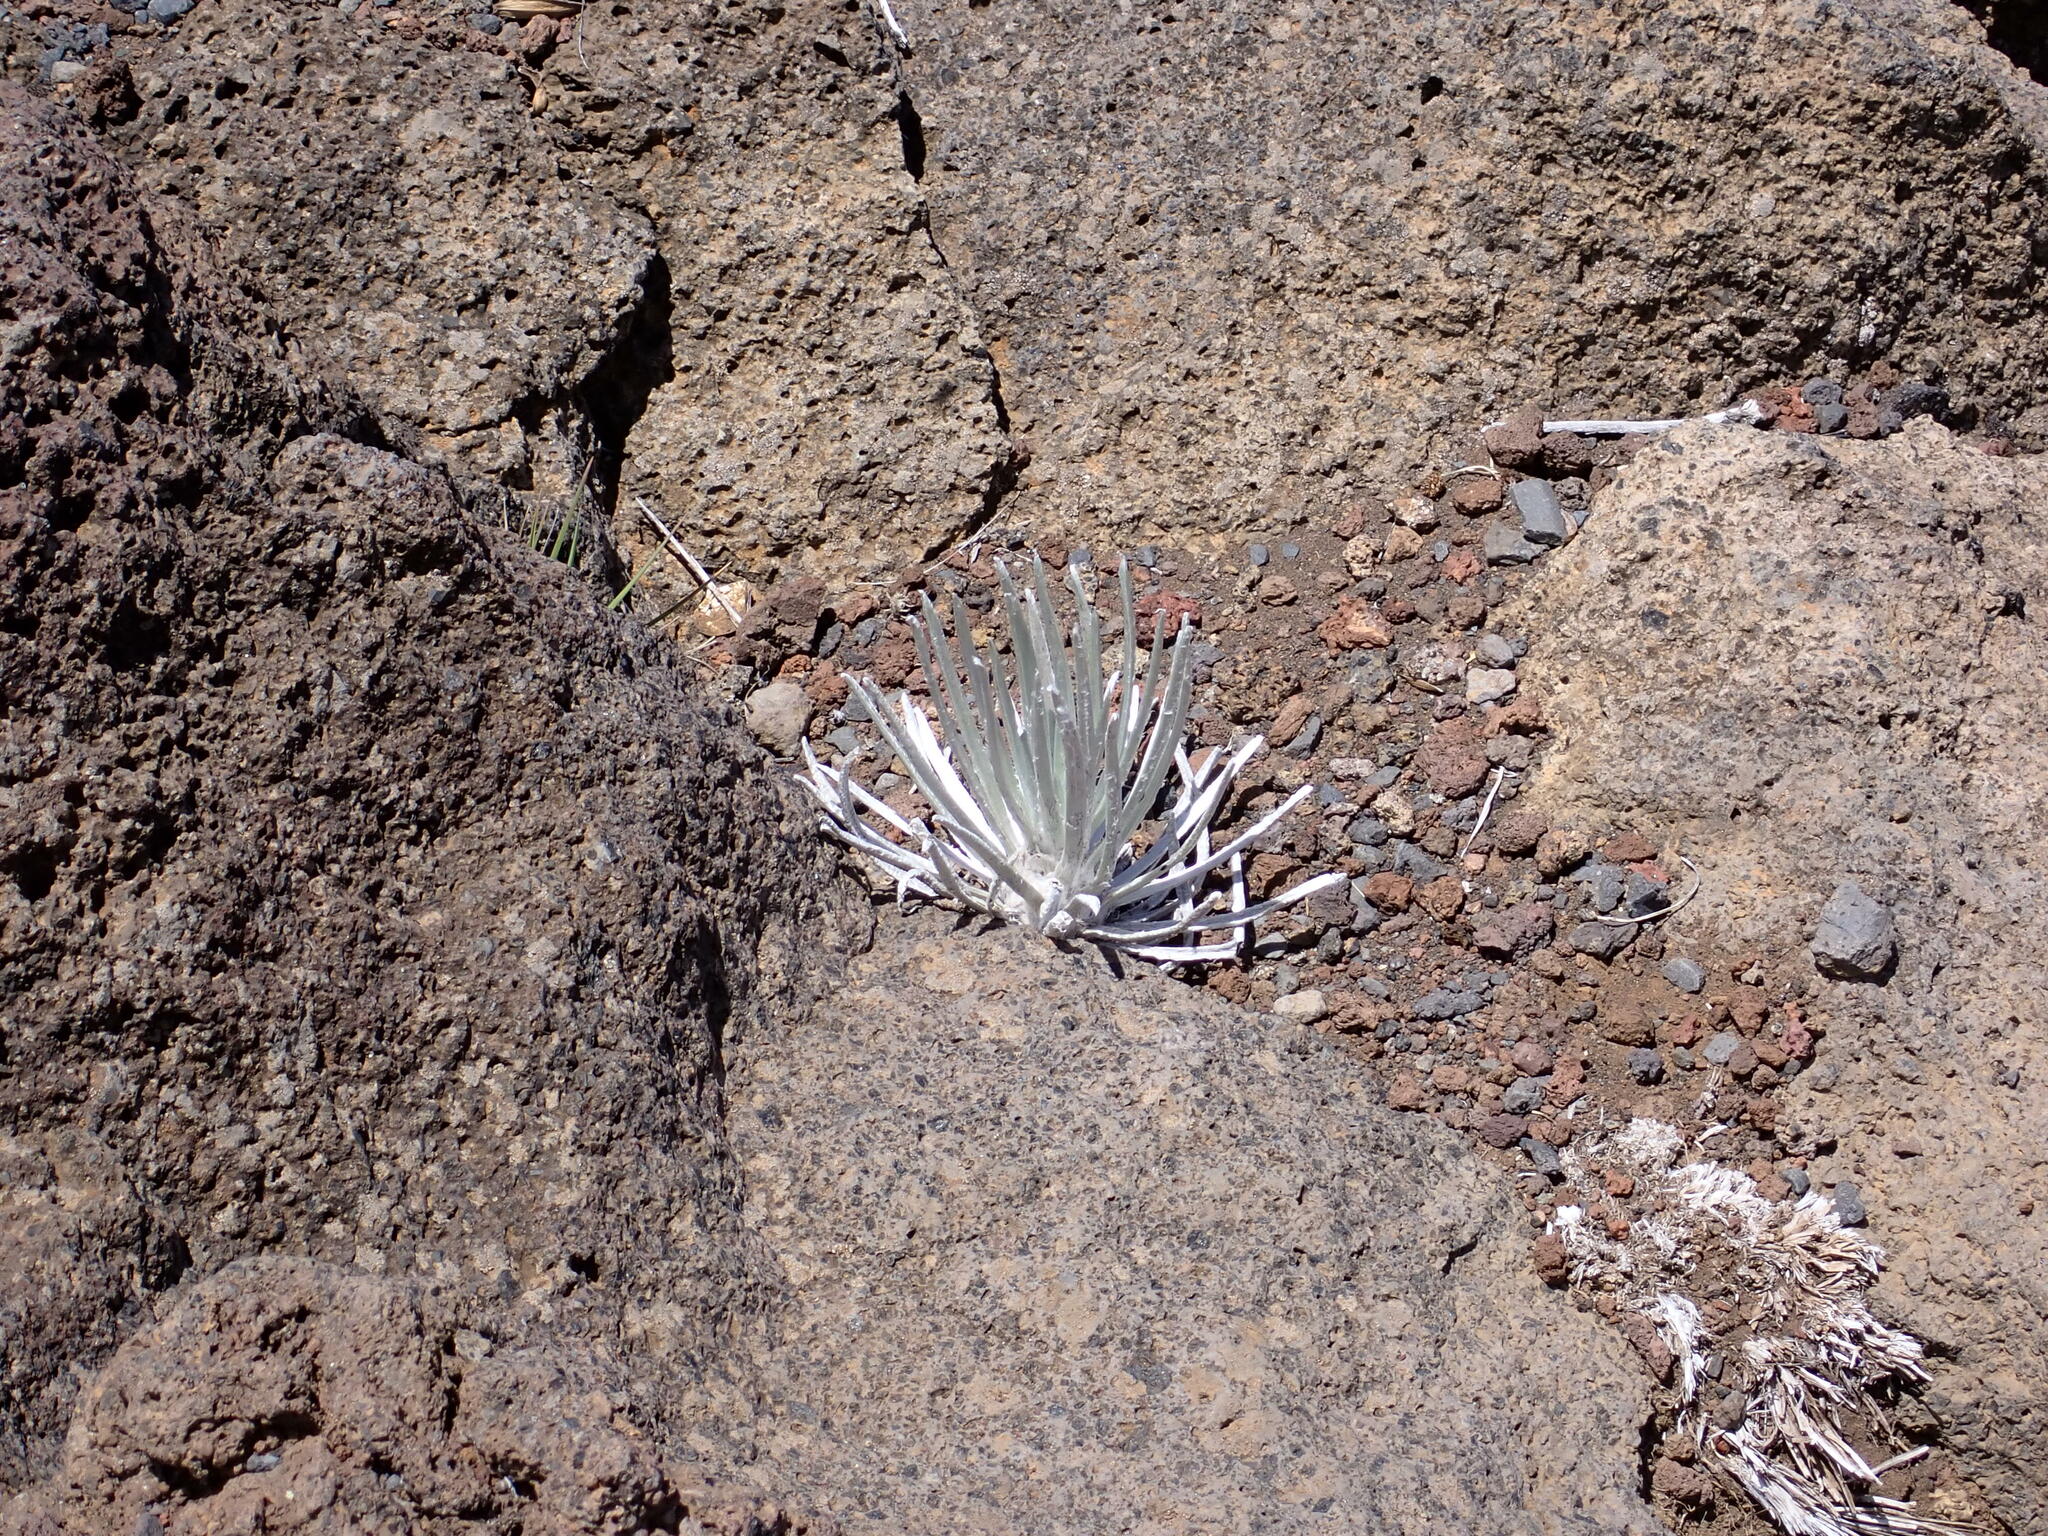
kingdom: Plantae
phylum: Tracheophyta
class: Magnoliopsida
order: Asterales
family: Asteraceae
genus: Argyroxiphium
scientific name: Argyroxiphium sandwicense
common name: Silversword
